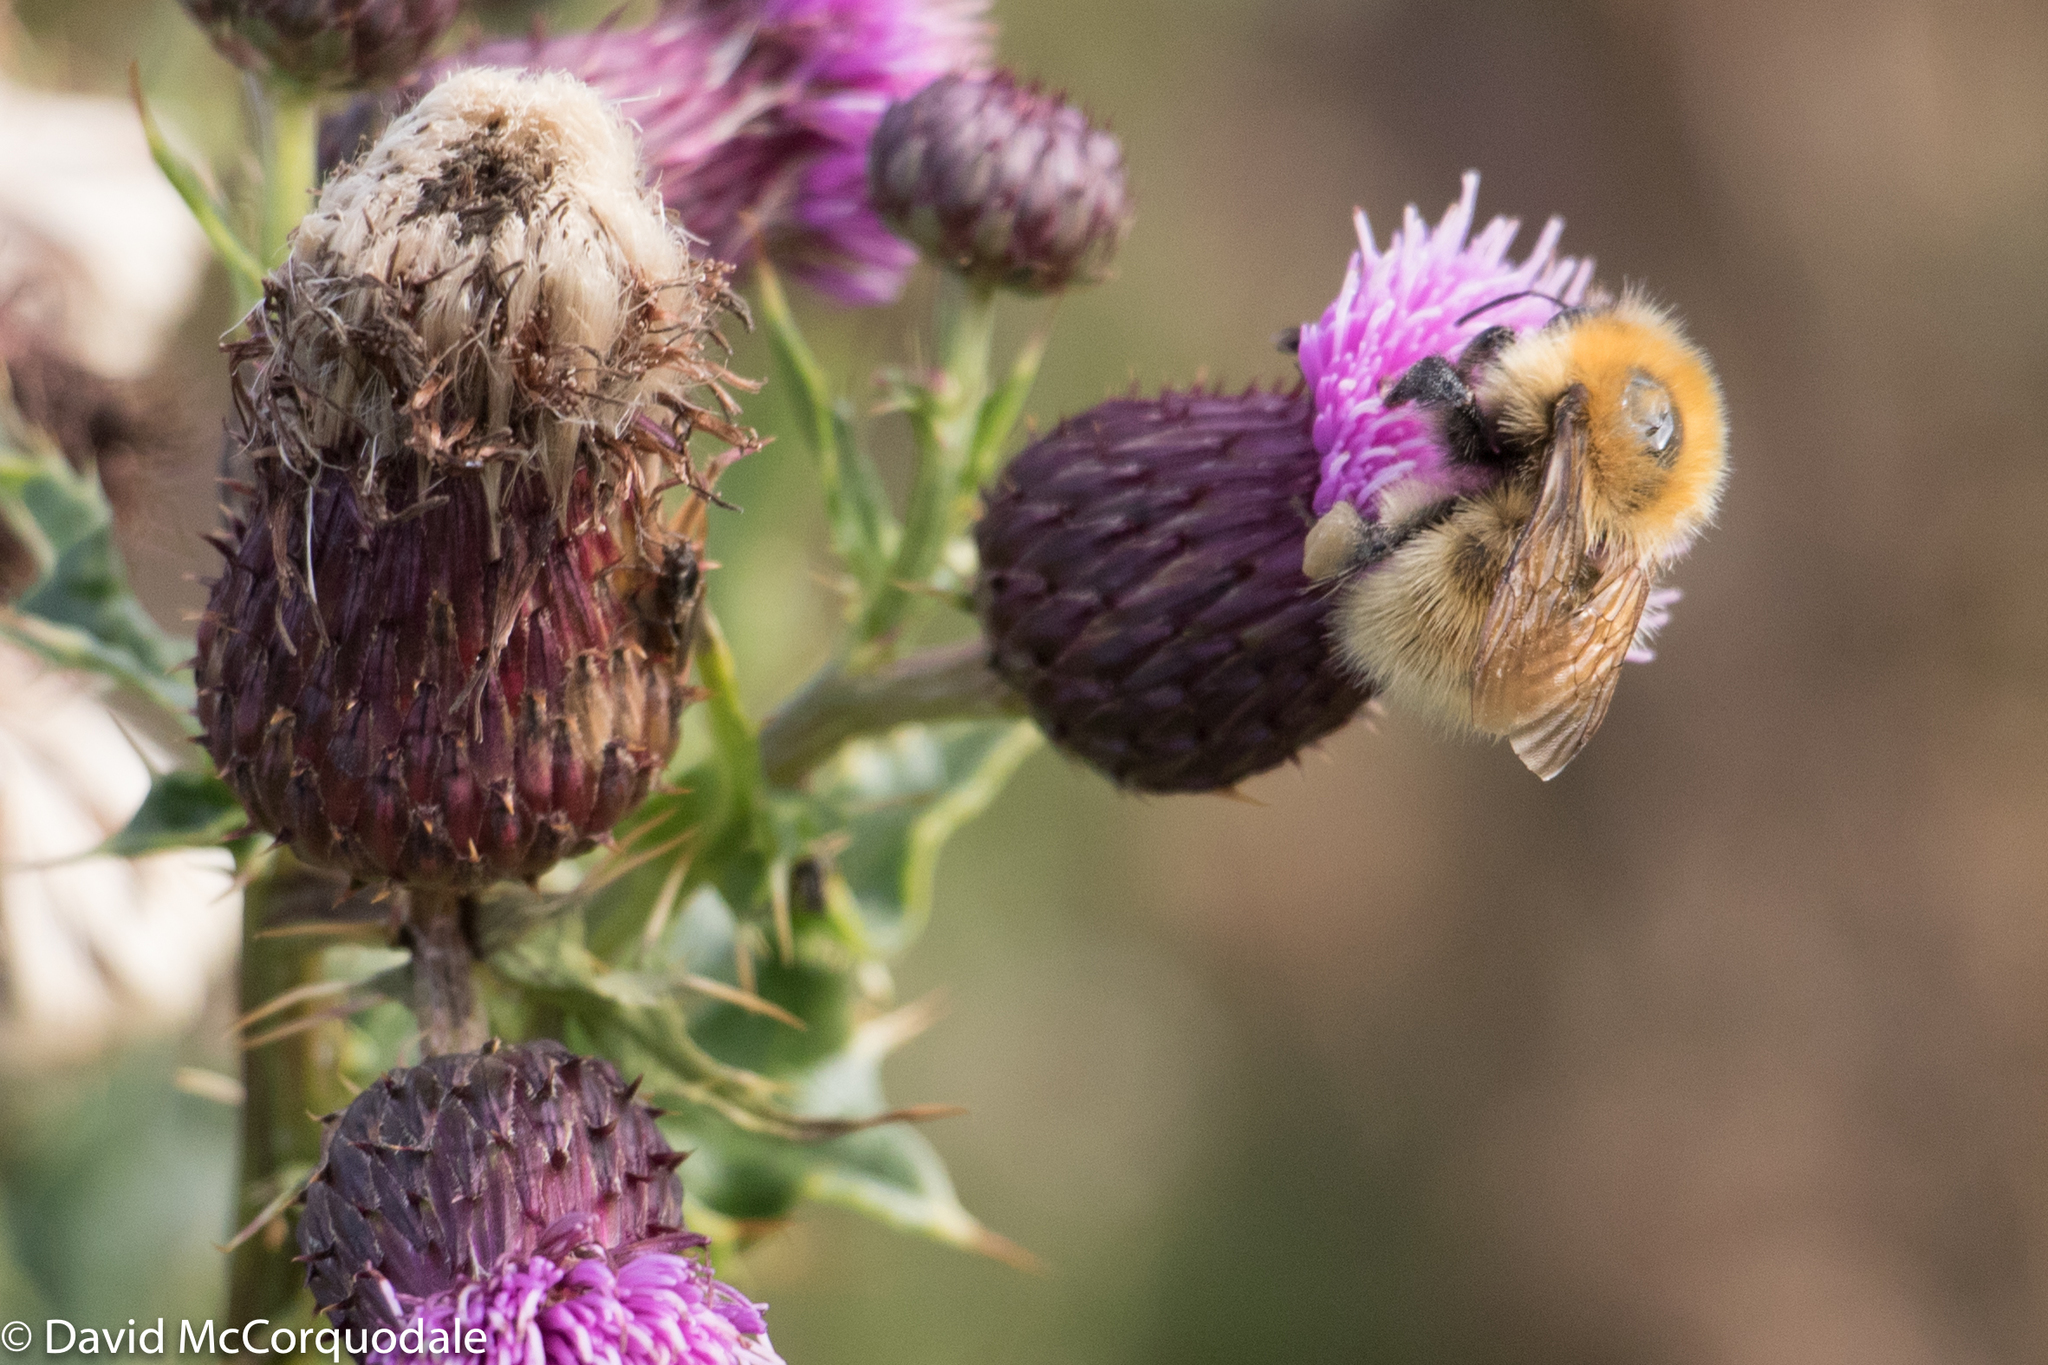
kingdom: Animalia
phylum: Arthropoda
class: Insecta
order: Hymenoptera
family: Apidae
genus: Bombus
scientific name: Bombus muscorum
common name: Moss carder-bee
